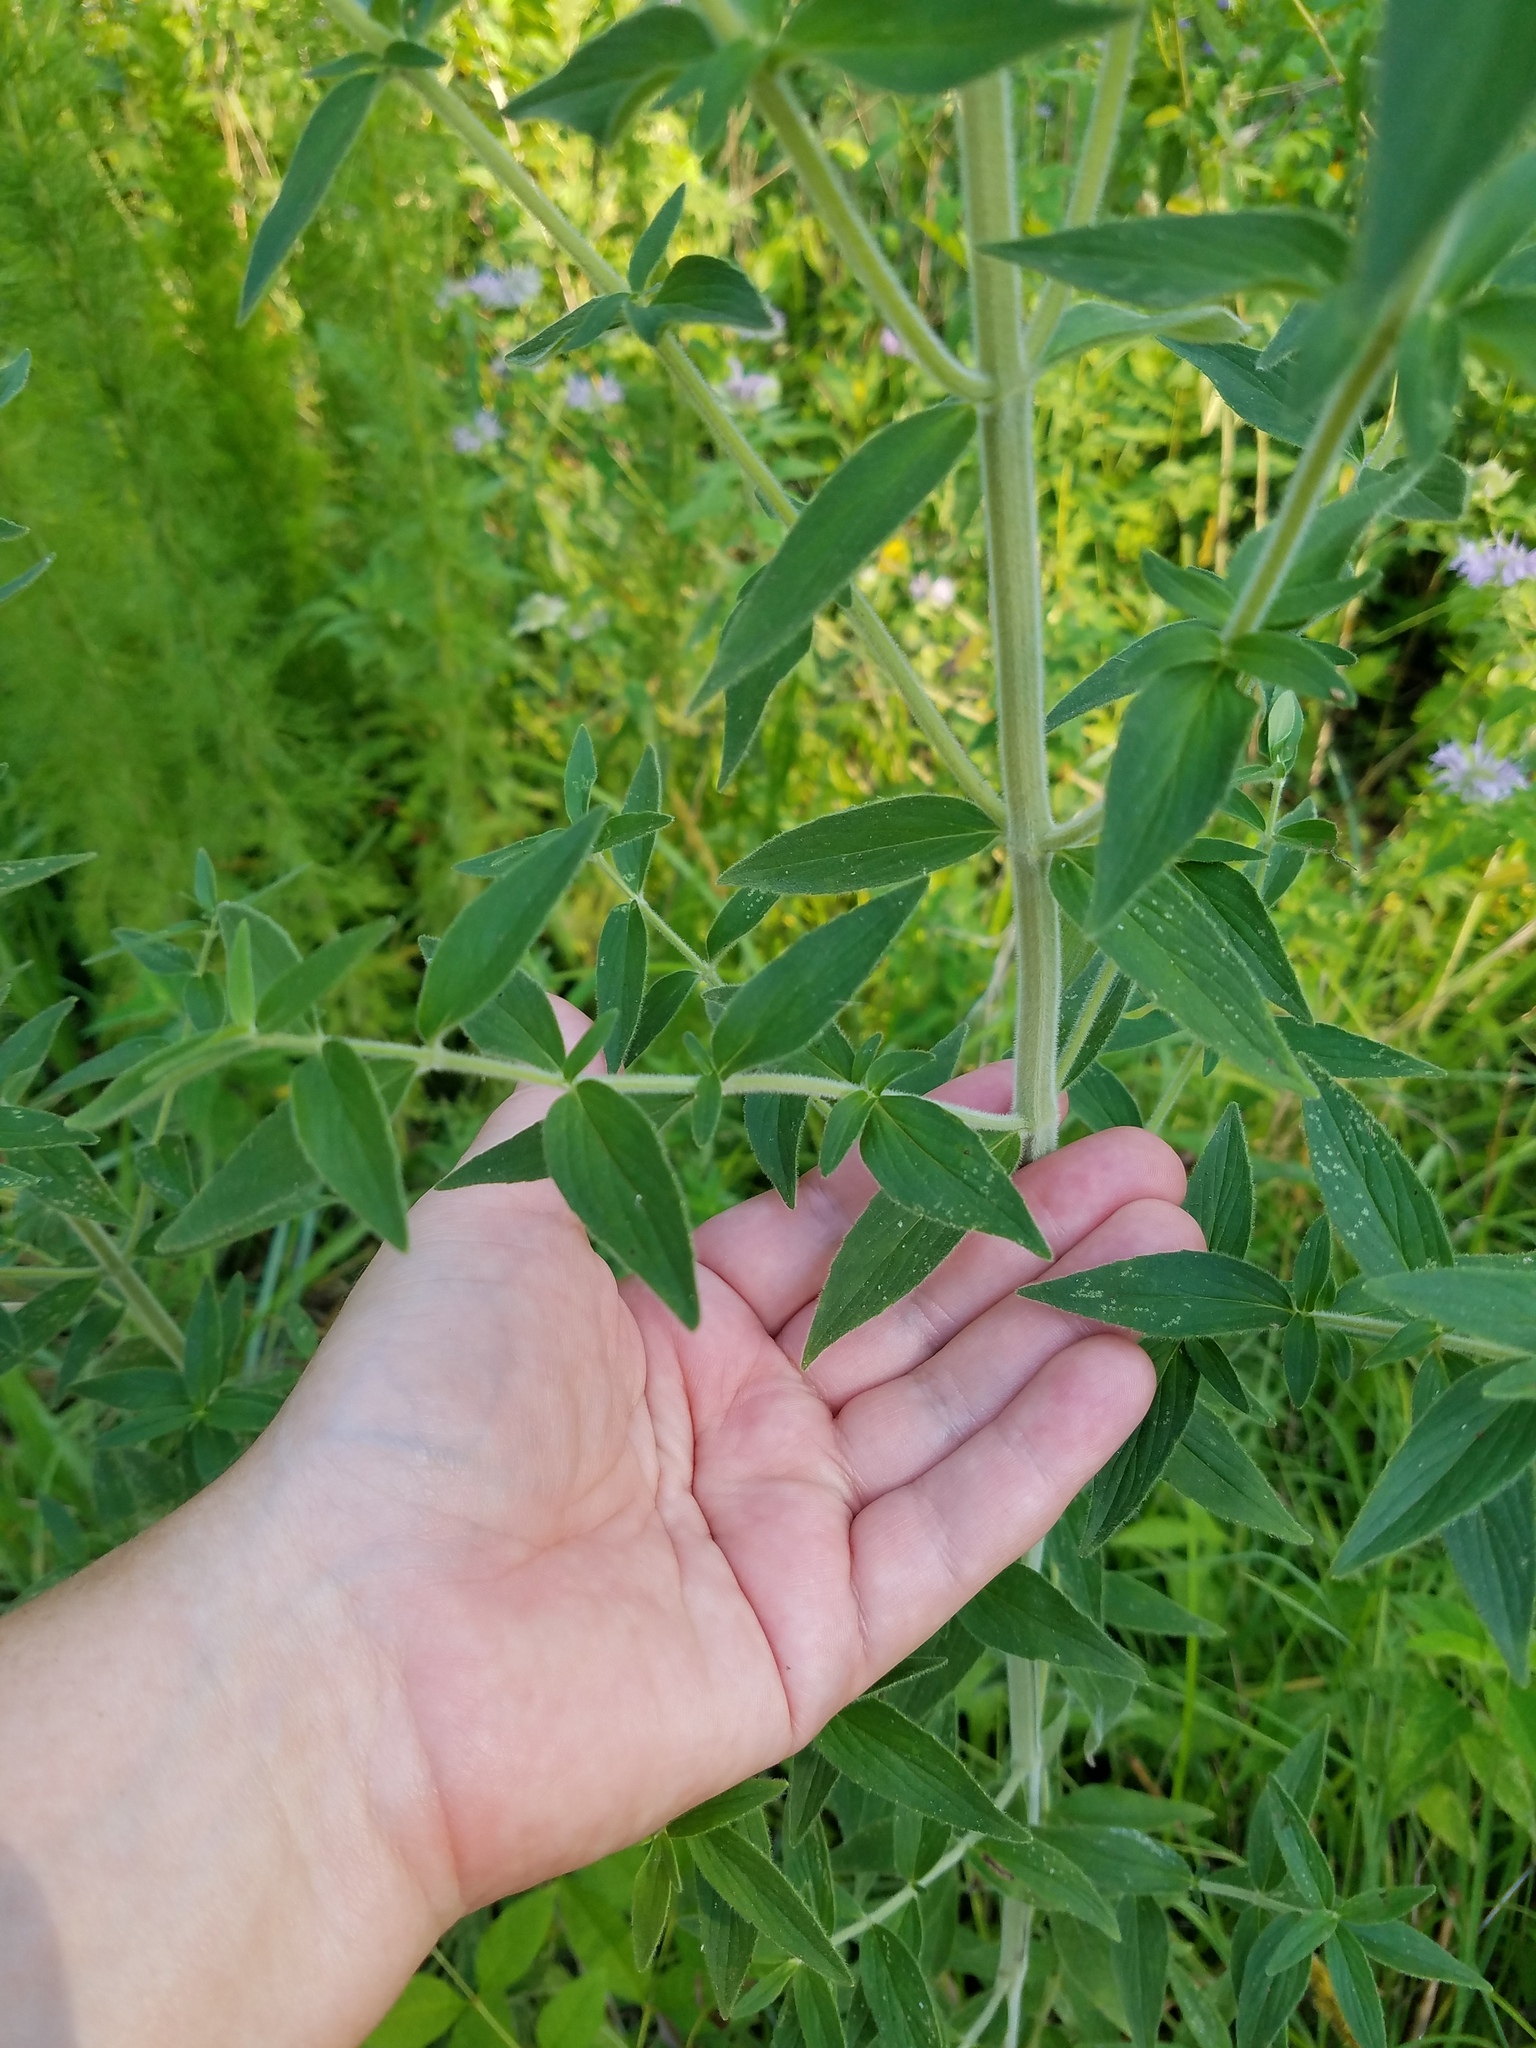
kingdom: Plantae
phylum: Tracheophyta
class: Magnoliopsida
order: Lamiales
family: Lamiaceae
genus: Pycnanthemum
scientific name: Pycnanthemum verticillatum
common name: Whorled mountain-mint
